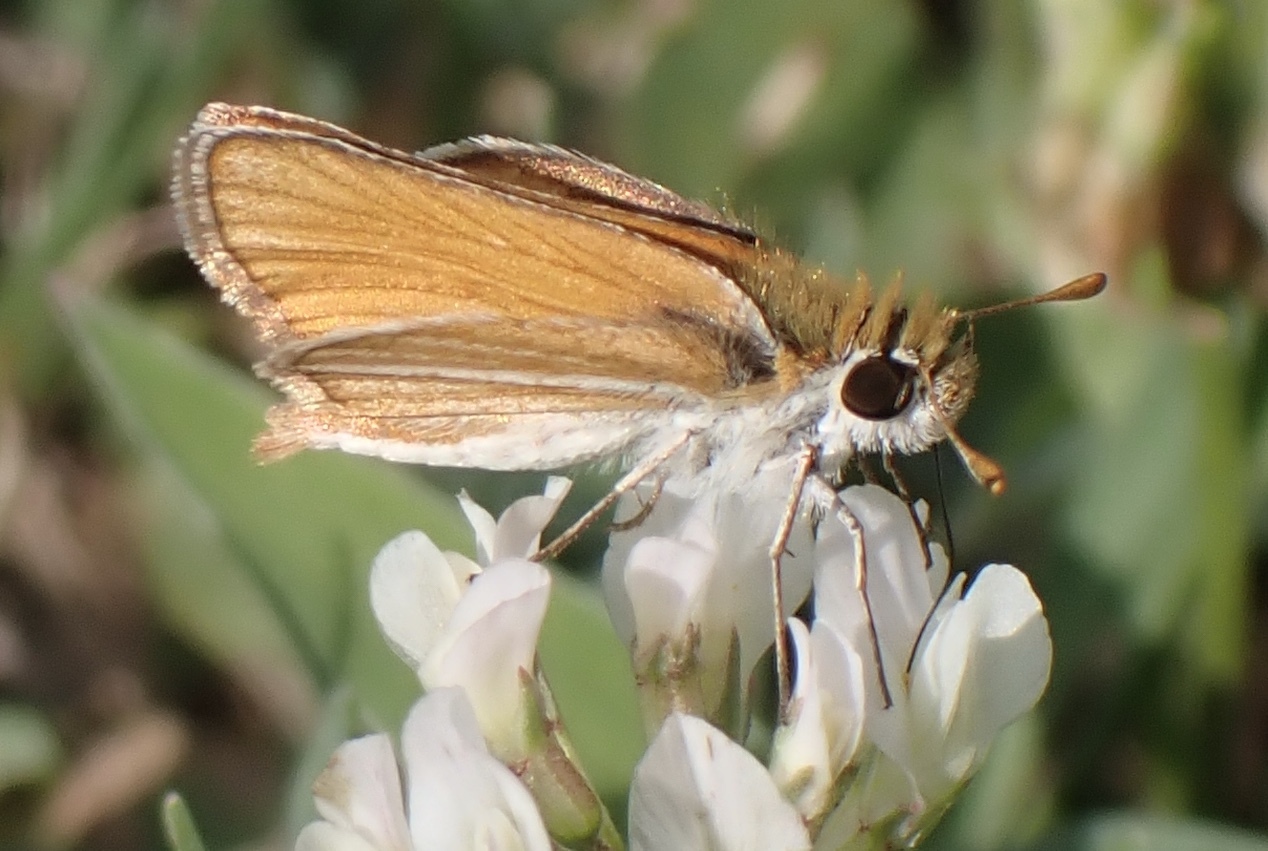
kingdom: Animalia
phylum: Arthropoda
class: Insecta
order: Lepidoptera
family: Hesperiidae
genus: Copaeodes
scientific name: Copaeodes minima
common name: Southern skipperling
